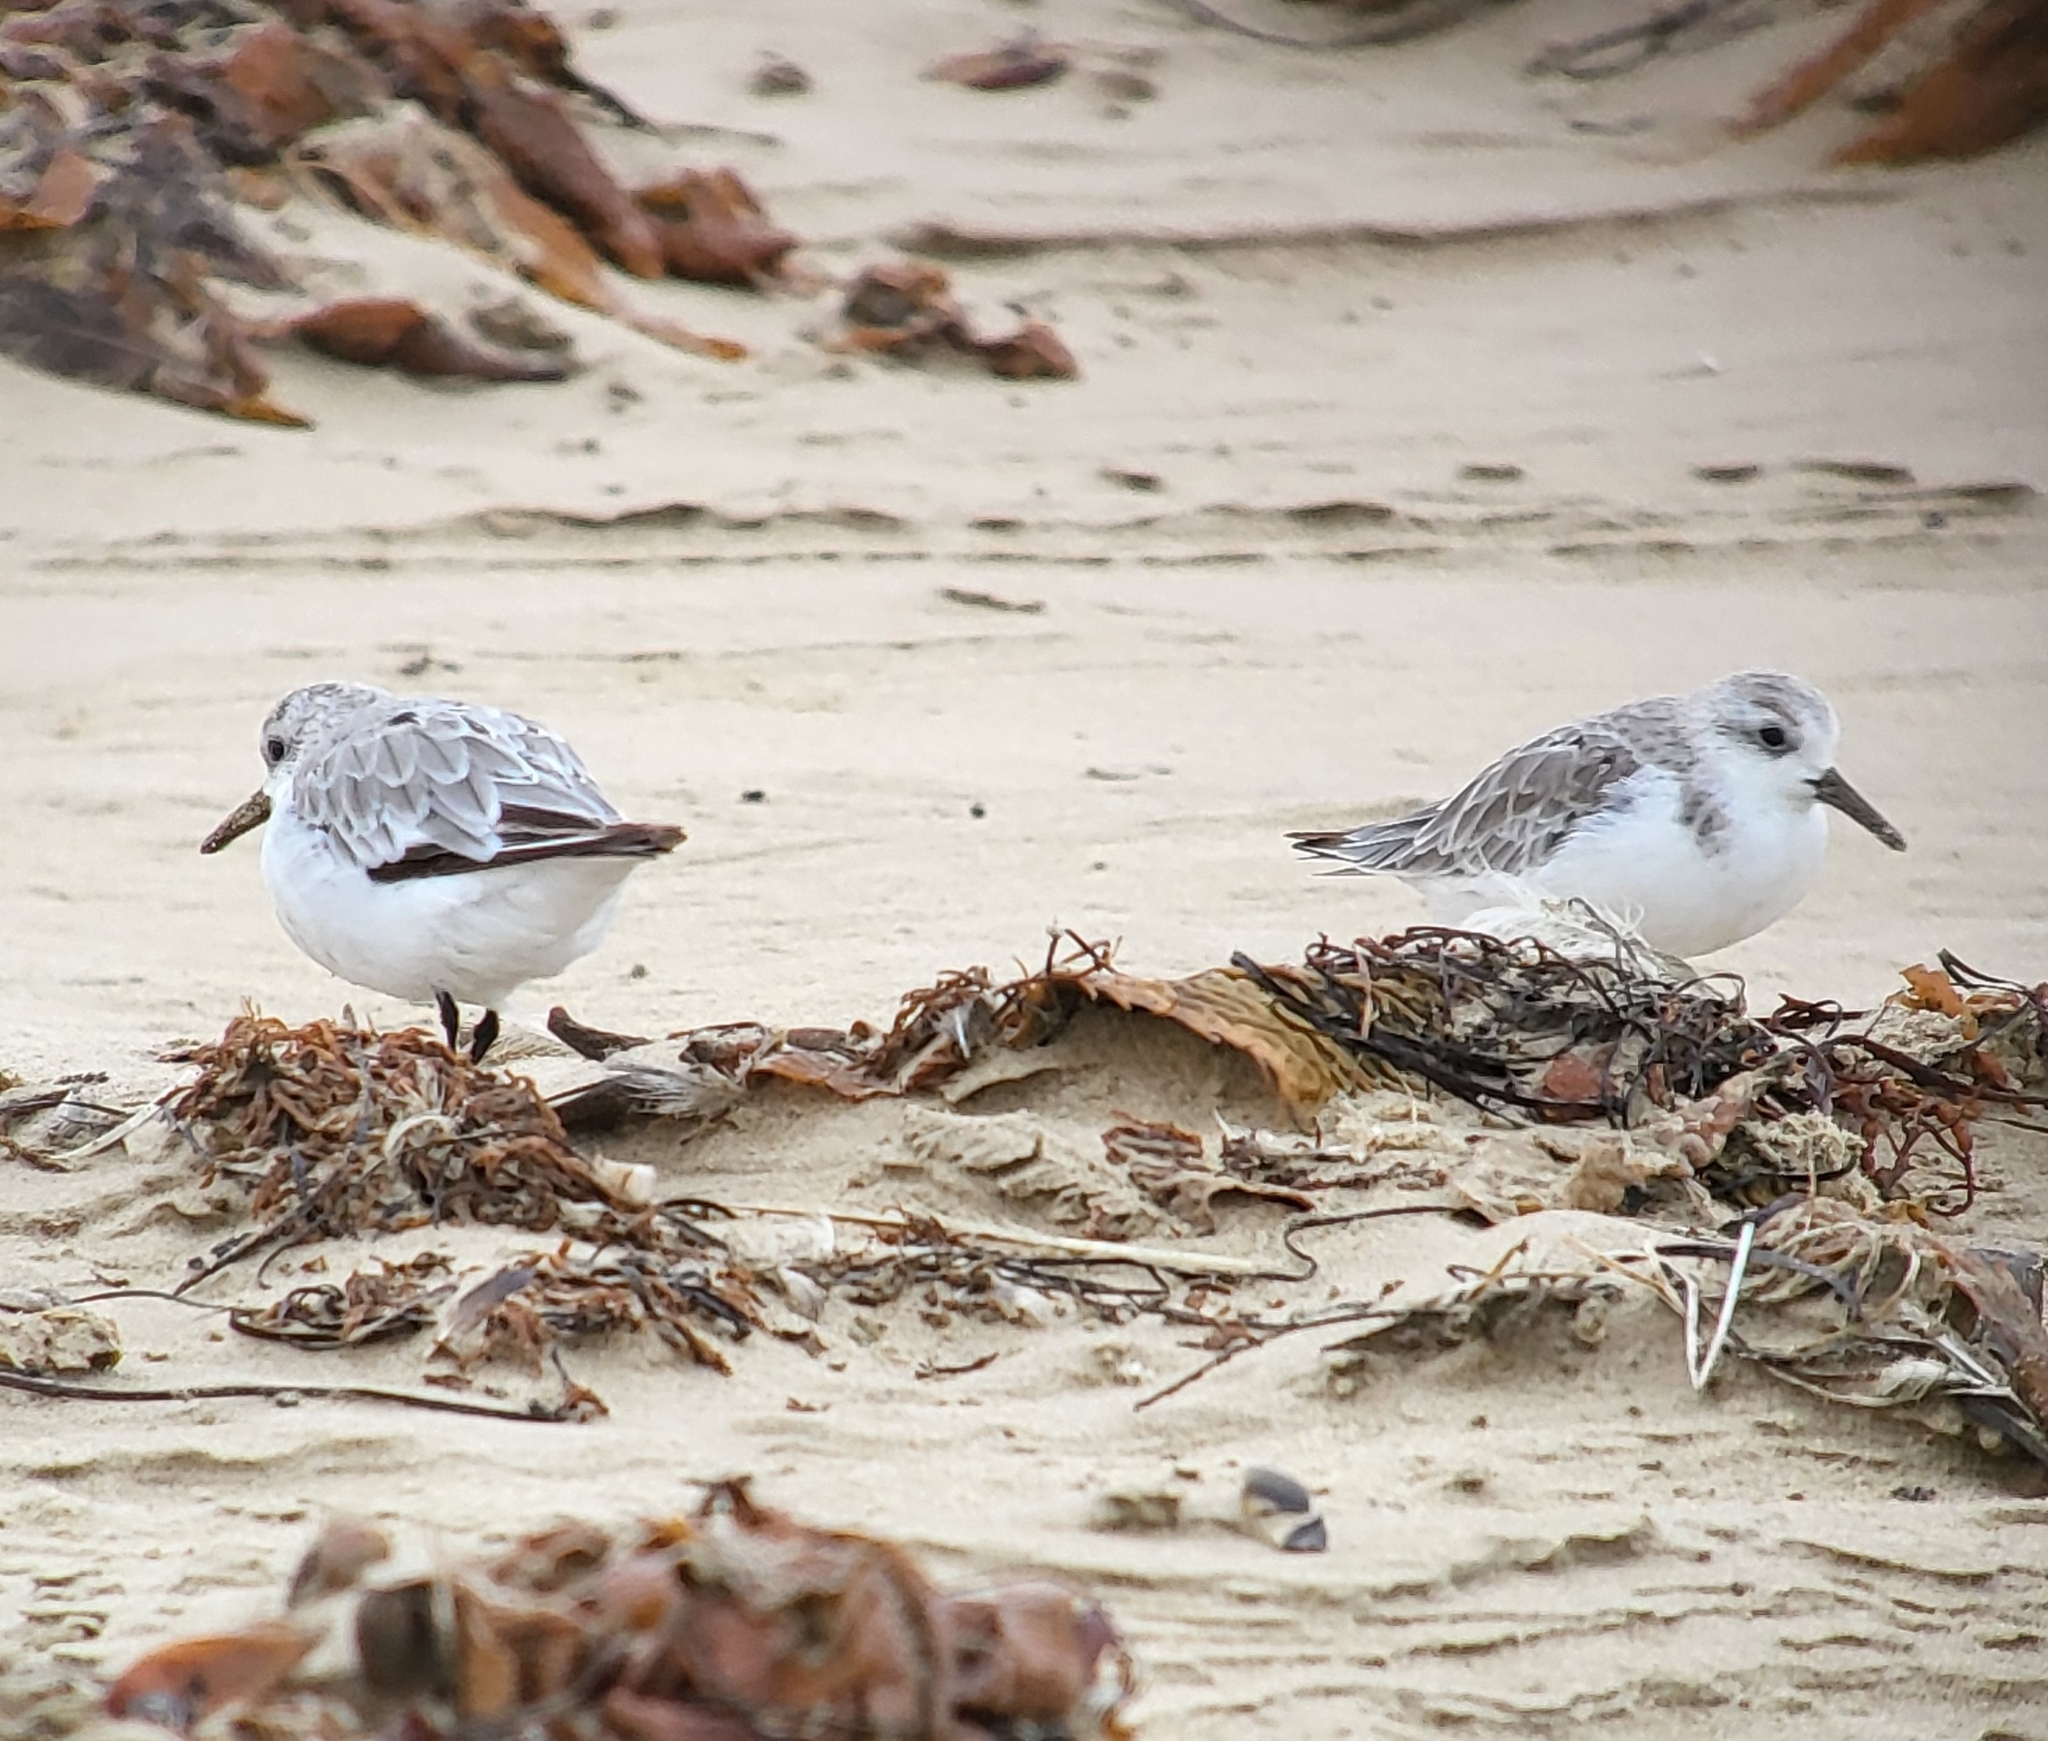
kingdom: Animalia
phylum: Chordata
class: Aves
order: Charadriiformes
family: Scolopacidae
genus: Calidris
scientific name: Calidris alba
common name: Sanderling
